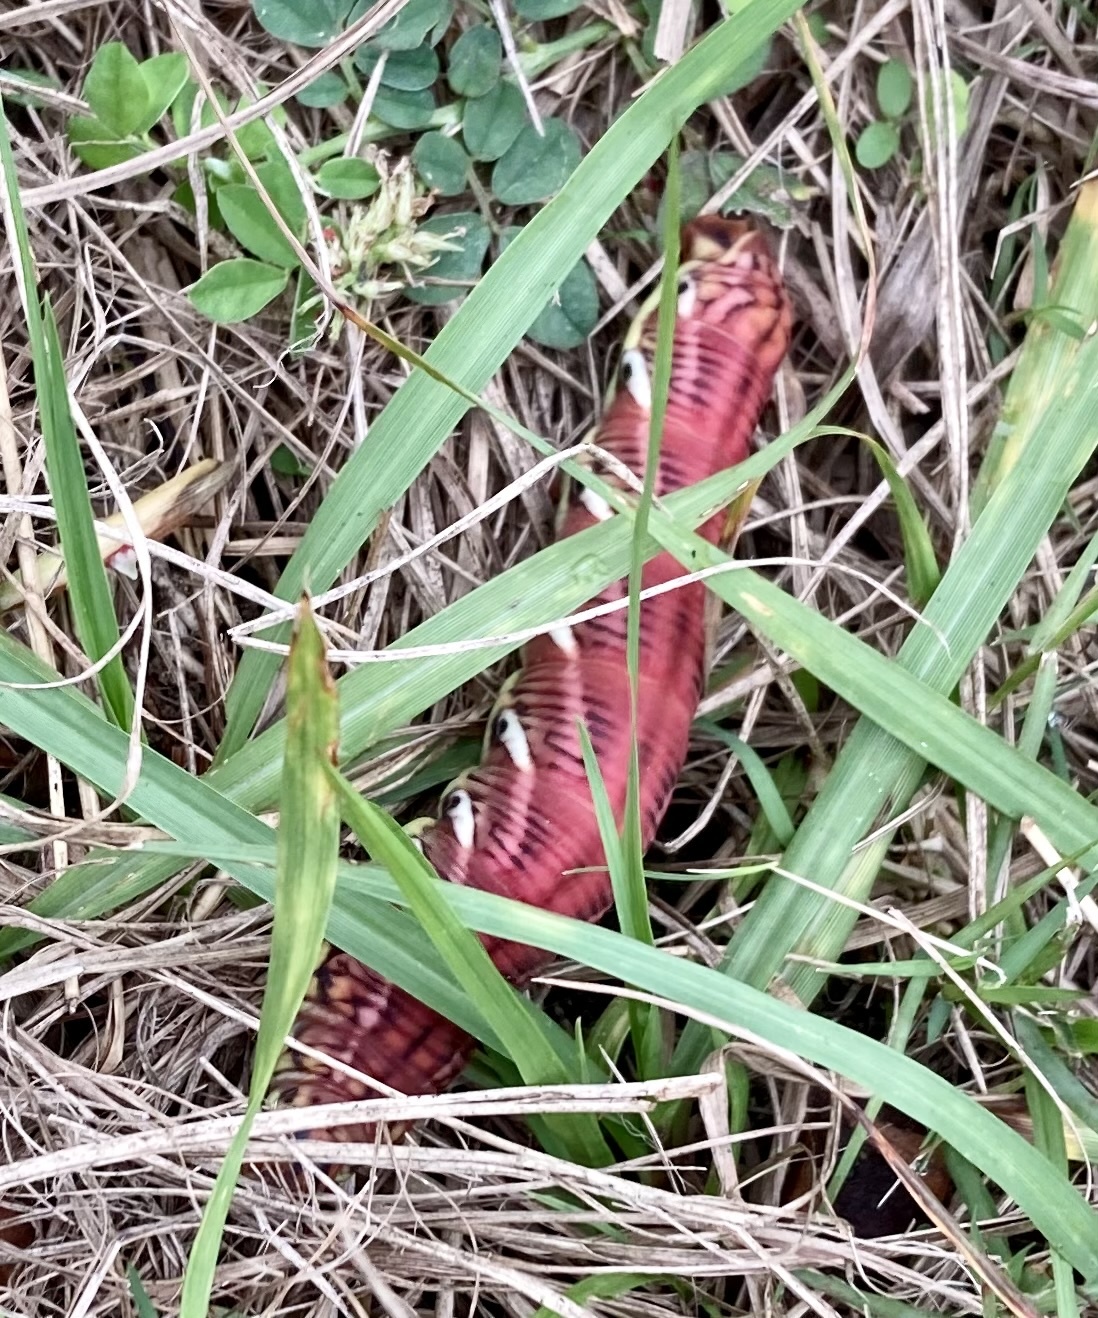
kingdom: Animalia
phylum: Arthropoda
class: Insecta
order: Lepidoptera
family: Sphingidae
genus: Eumorpha
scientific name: Eumorpha fasciatus
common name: Banded sphinx
